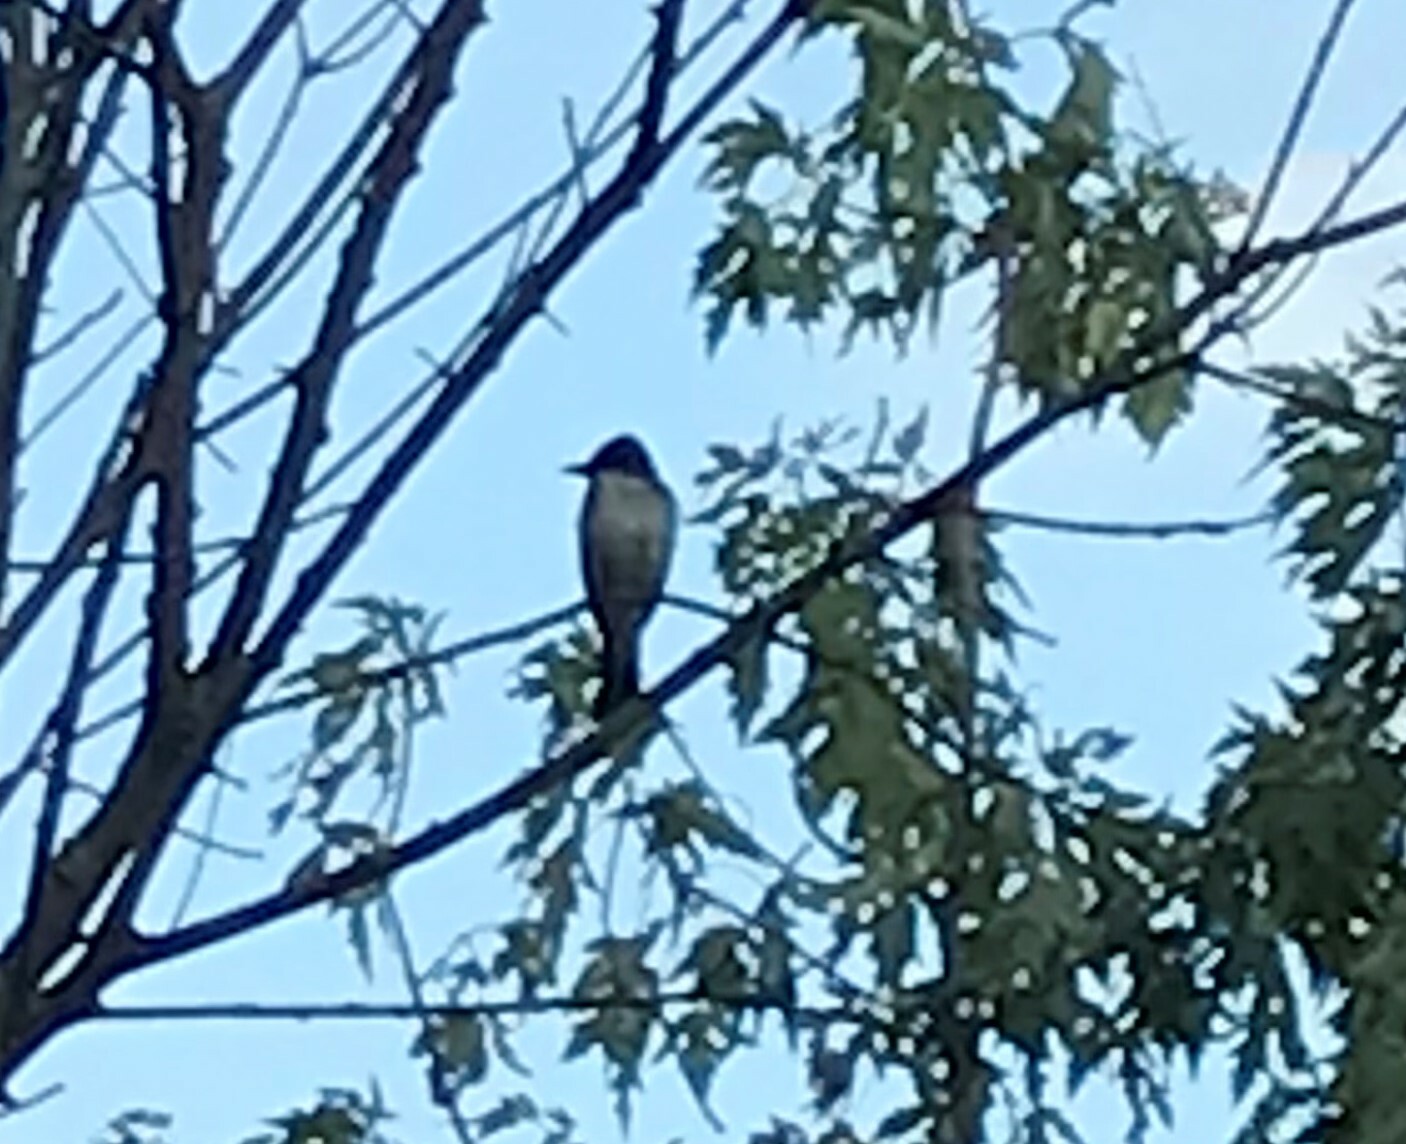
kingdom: Animalia
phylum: Chordata
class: Aves
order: Passeriformes
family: Tyrannidae
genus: Tyrannus
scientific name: Tyrannus tyrannus
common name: Eastern kingbird
